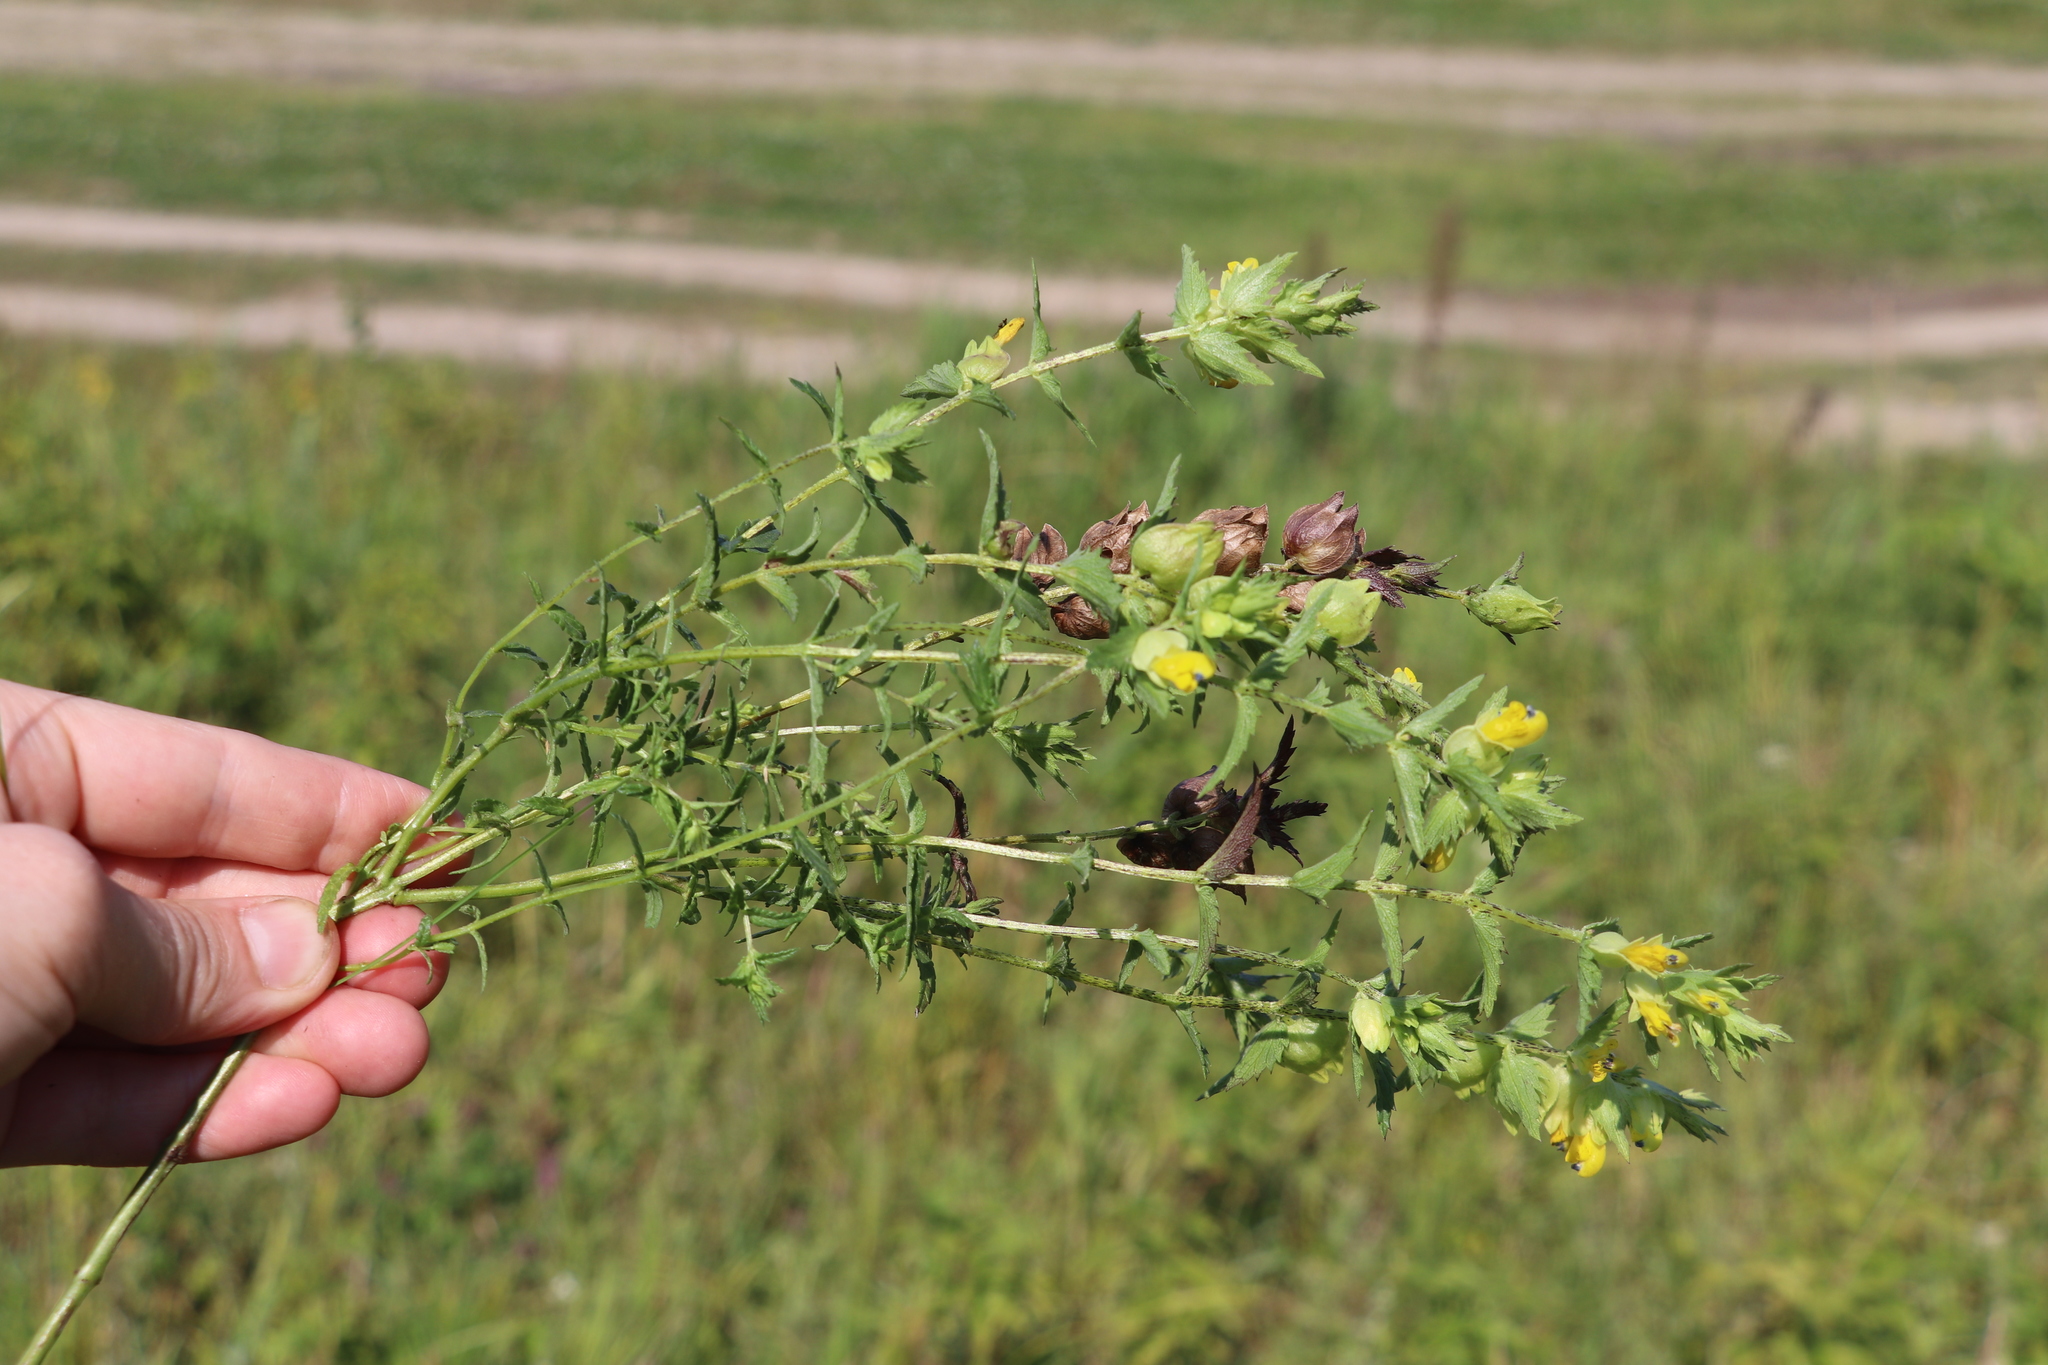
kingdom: Plantae
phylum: Tracheophyta
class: Magnoliopsida
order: Lamiales
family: Orobanchaceae
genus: Rhinanthus
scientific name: Rhinanthus serotinus
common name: Late-flowering yellow rattle
